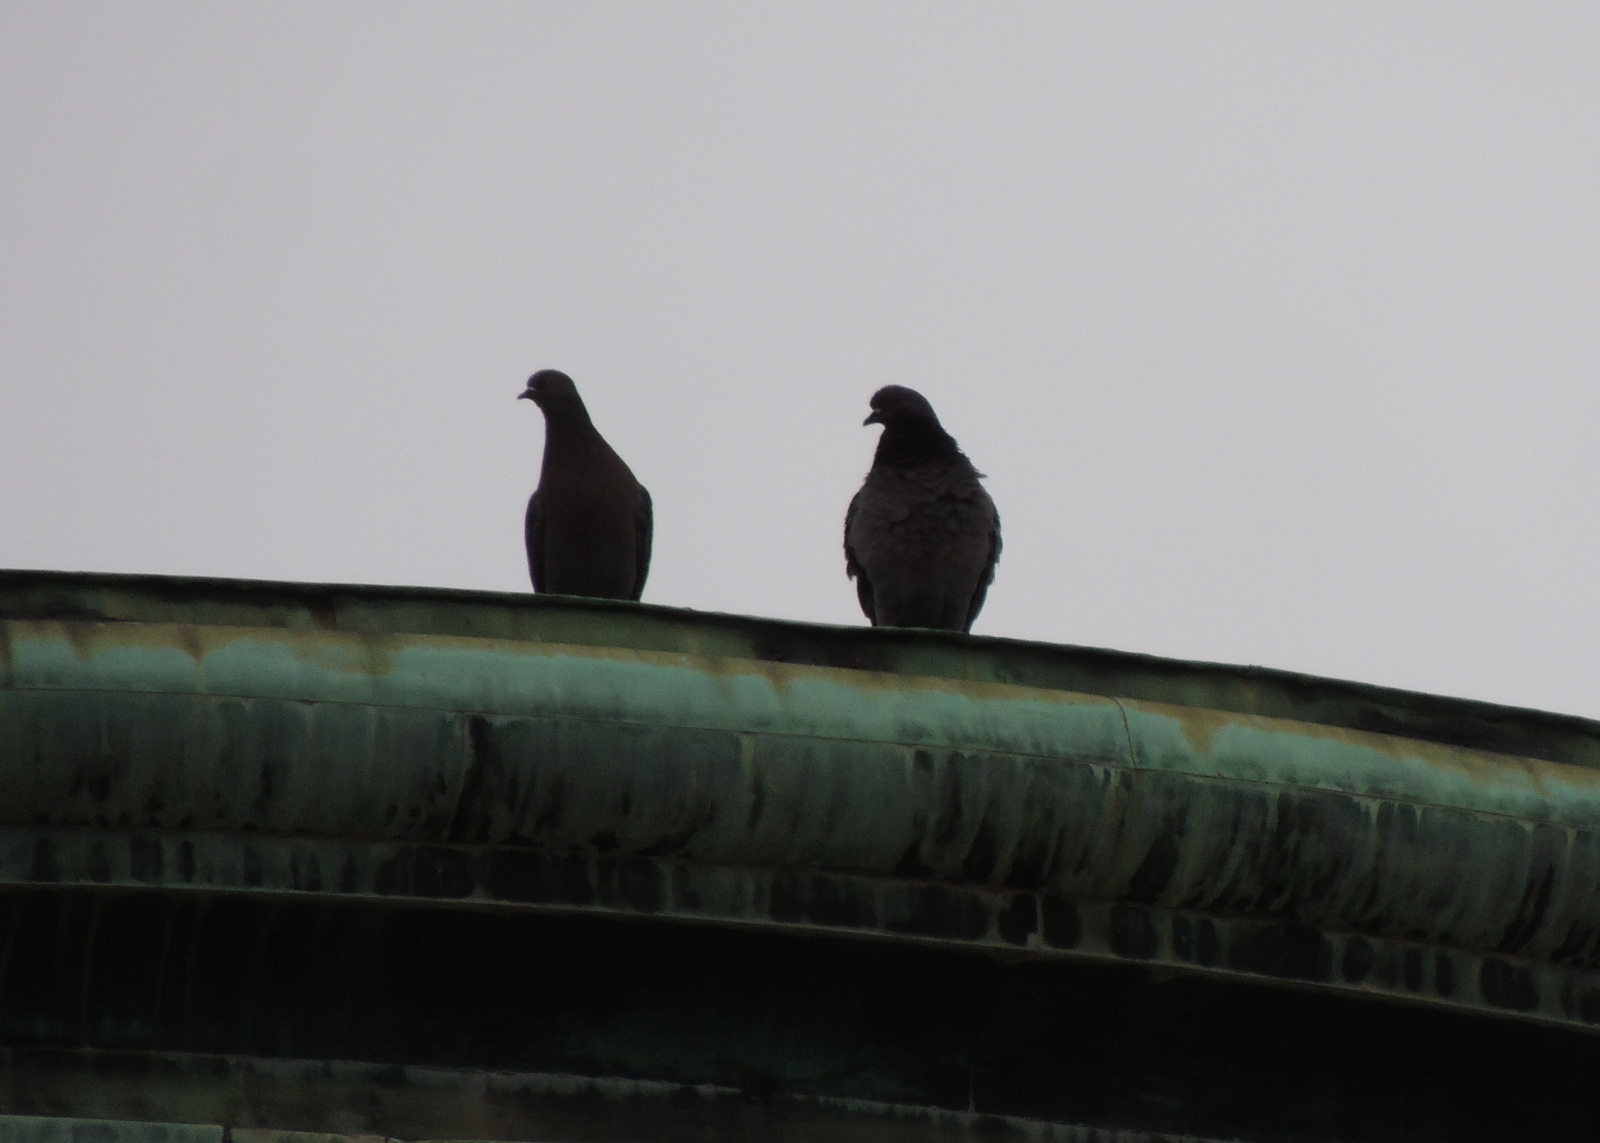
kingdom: Animalia
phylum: Chordata
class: Aves
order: Columbiformes
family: Columbidae
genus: Columba
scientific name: Columba livia
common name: Rock pigeon
